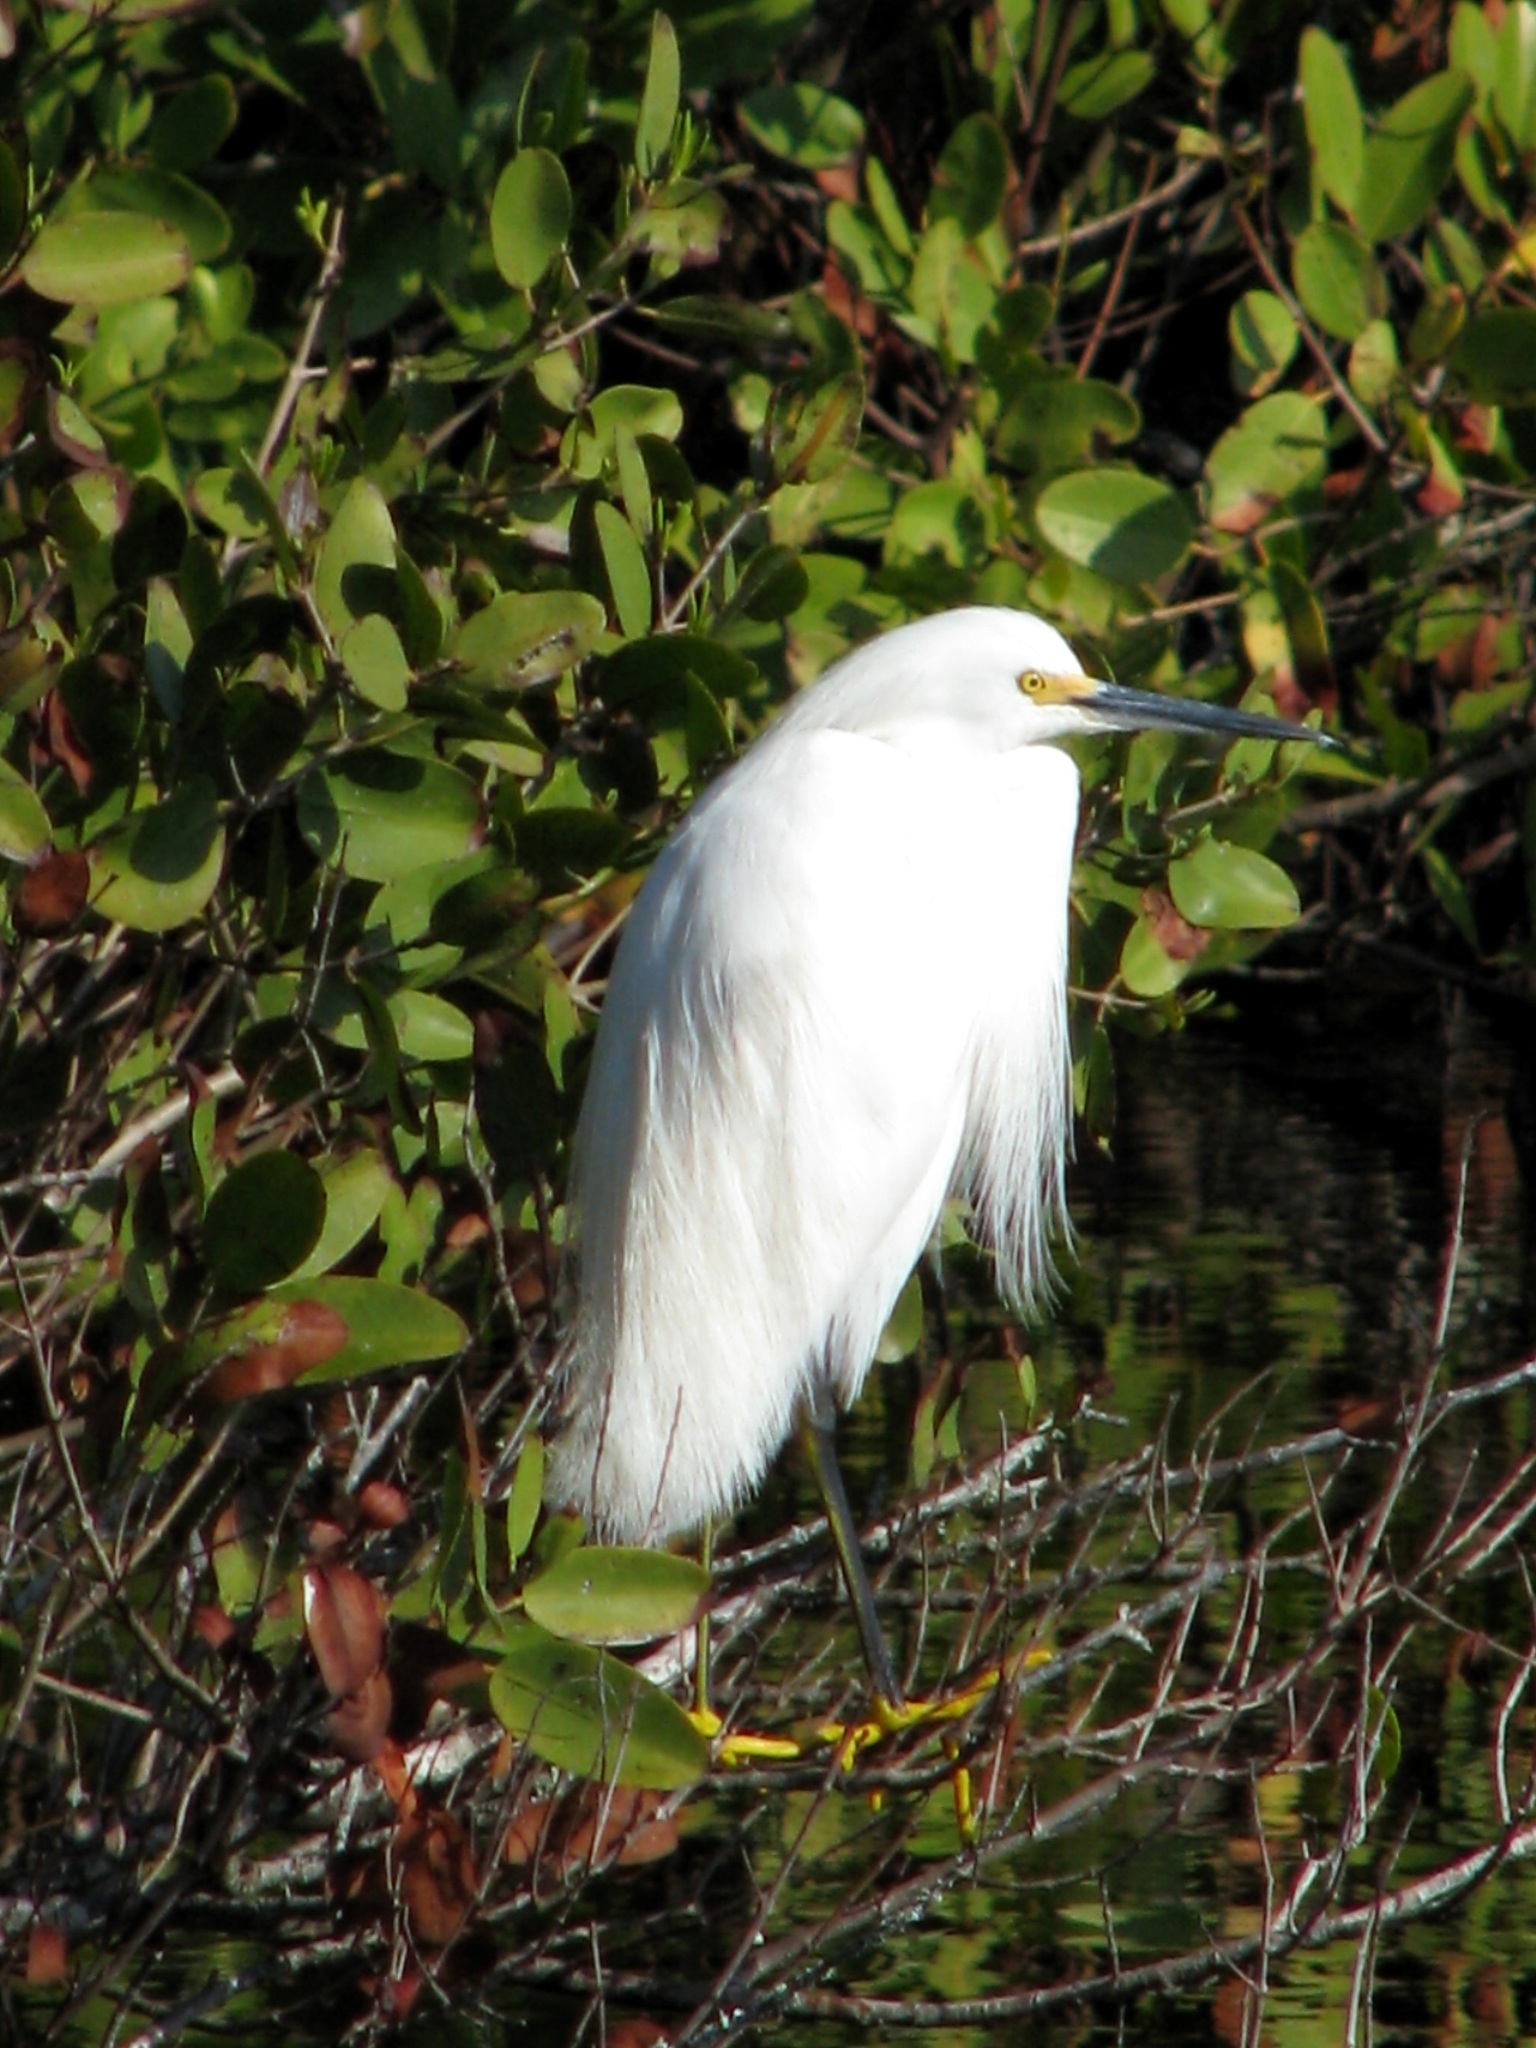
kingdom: Animalia
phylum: Chordata
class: Aves
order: Pelecaniformes
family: Ardeidae
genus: Egretta
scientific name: Egretta thula
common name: Snowy egret
